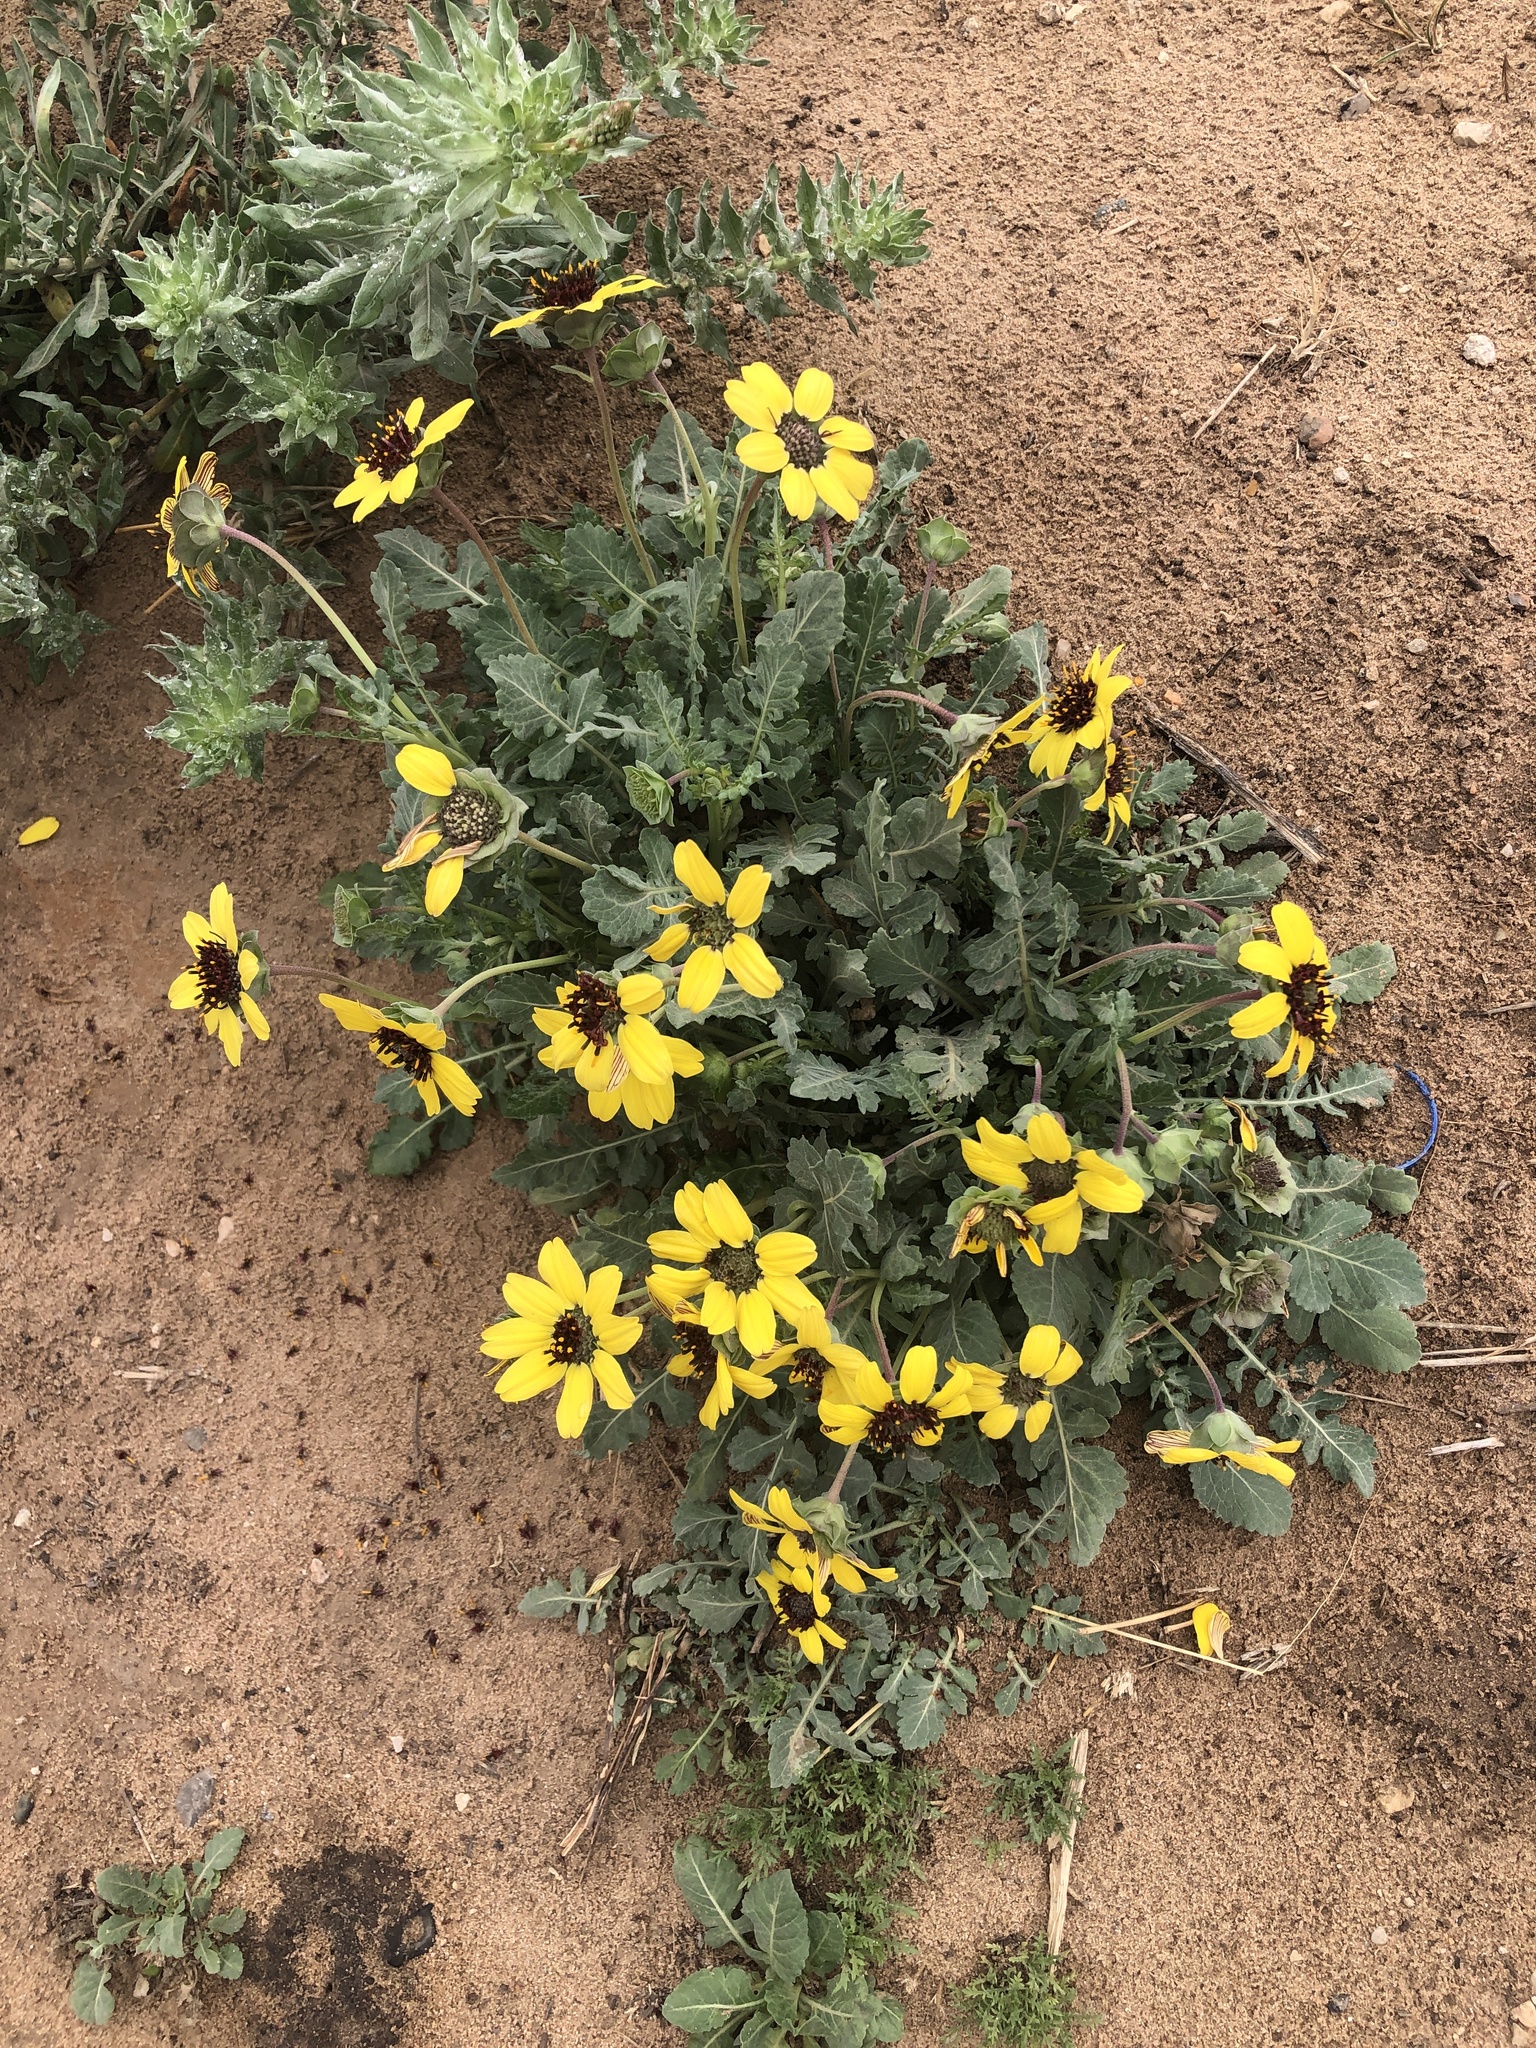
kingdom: Plantae
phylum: Tracheophyta
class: Magnoliopsida
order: Asterales
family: Asteraceae
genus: Berlandiera
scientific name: Berlandiera lyrata
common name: Chocolate-flower
